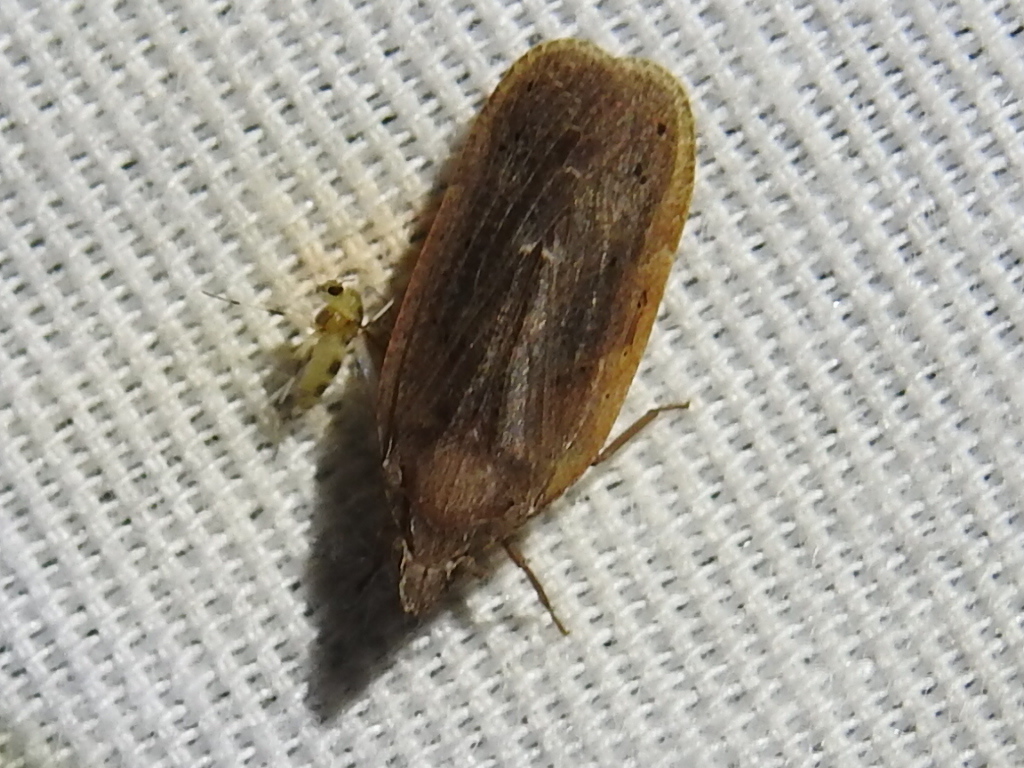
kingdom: Animalia
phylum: Arthropoda
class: Insecta
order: Hemiptera
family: Achilidae
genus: Cixidia
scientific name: Cixidia fusca
